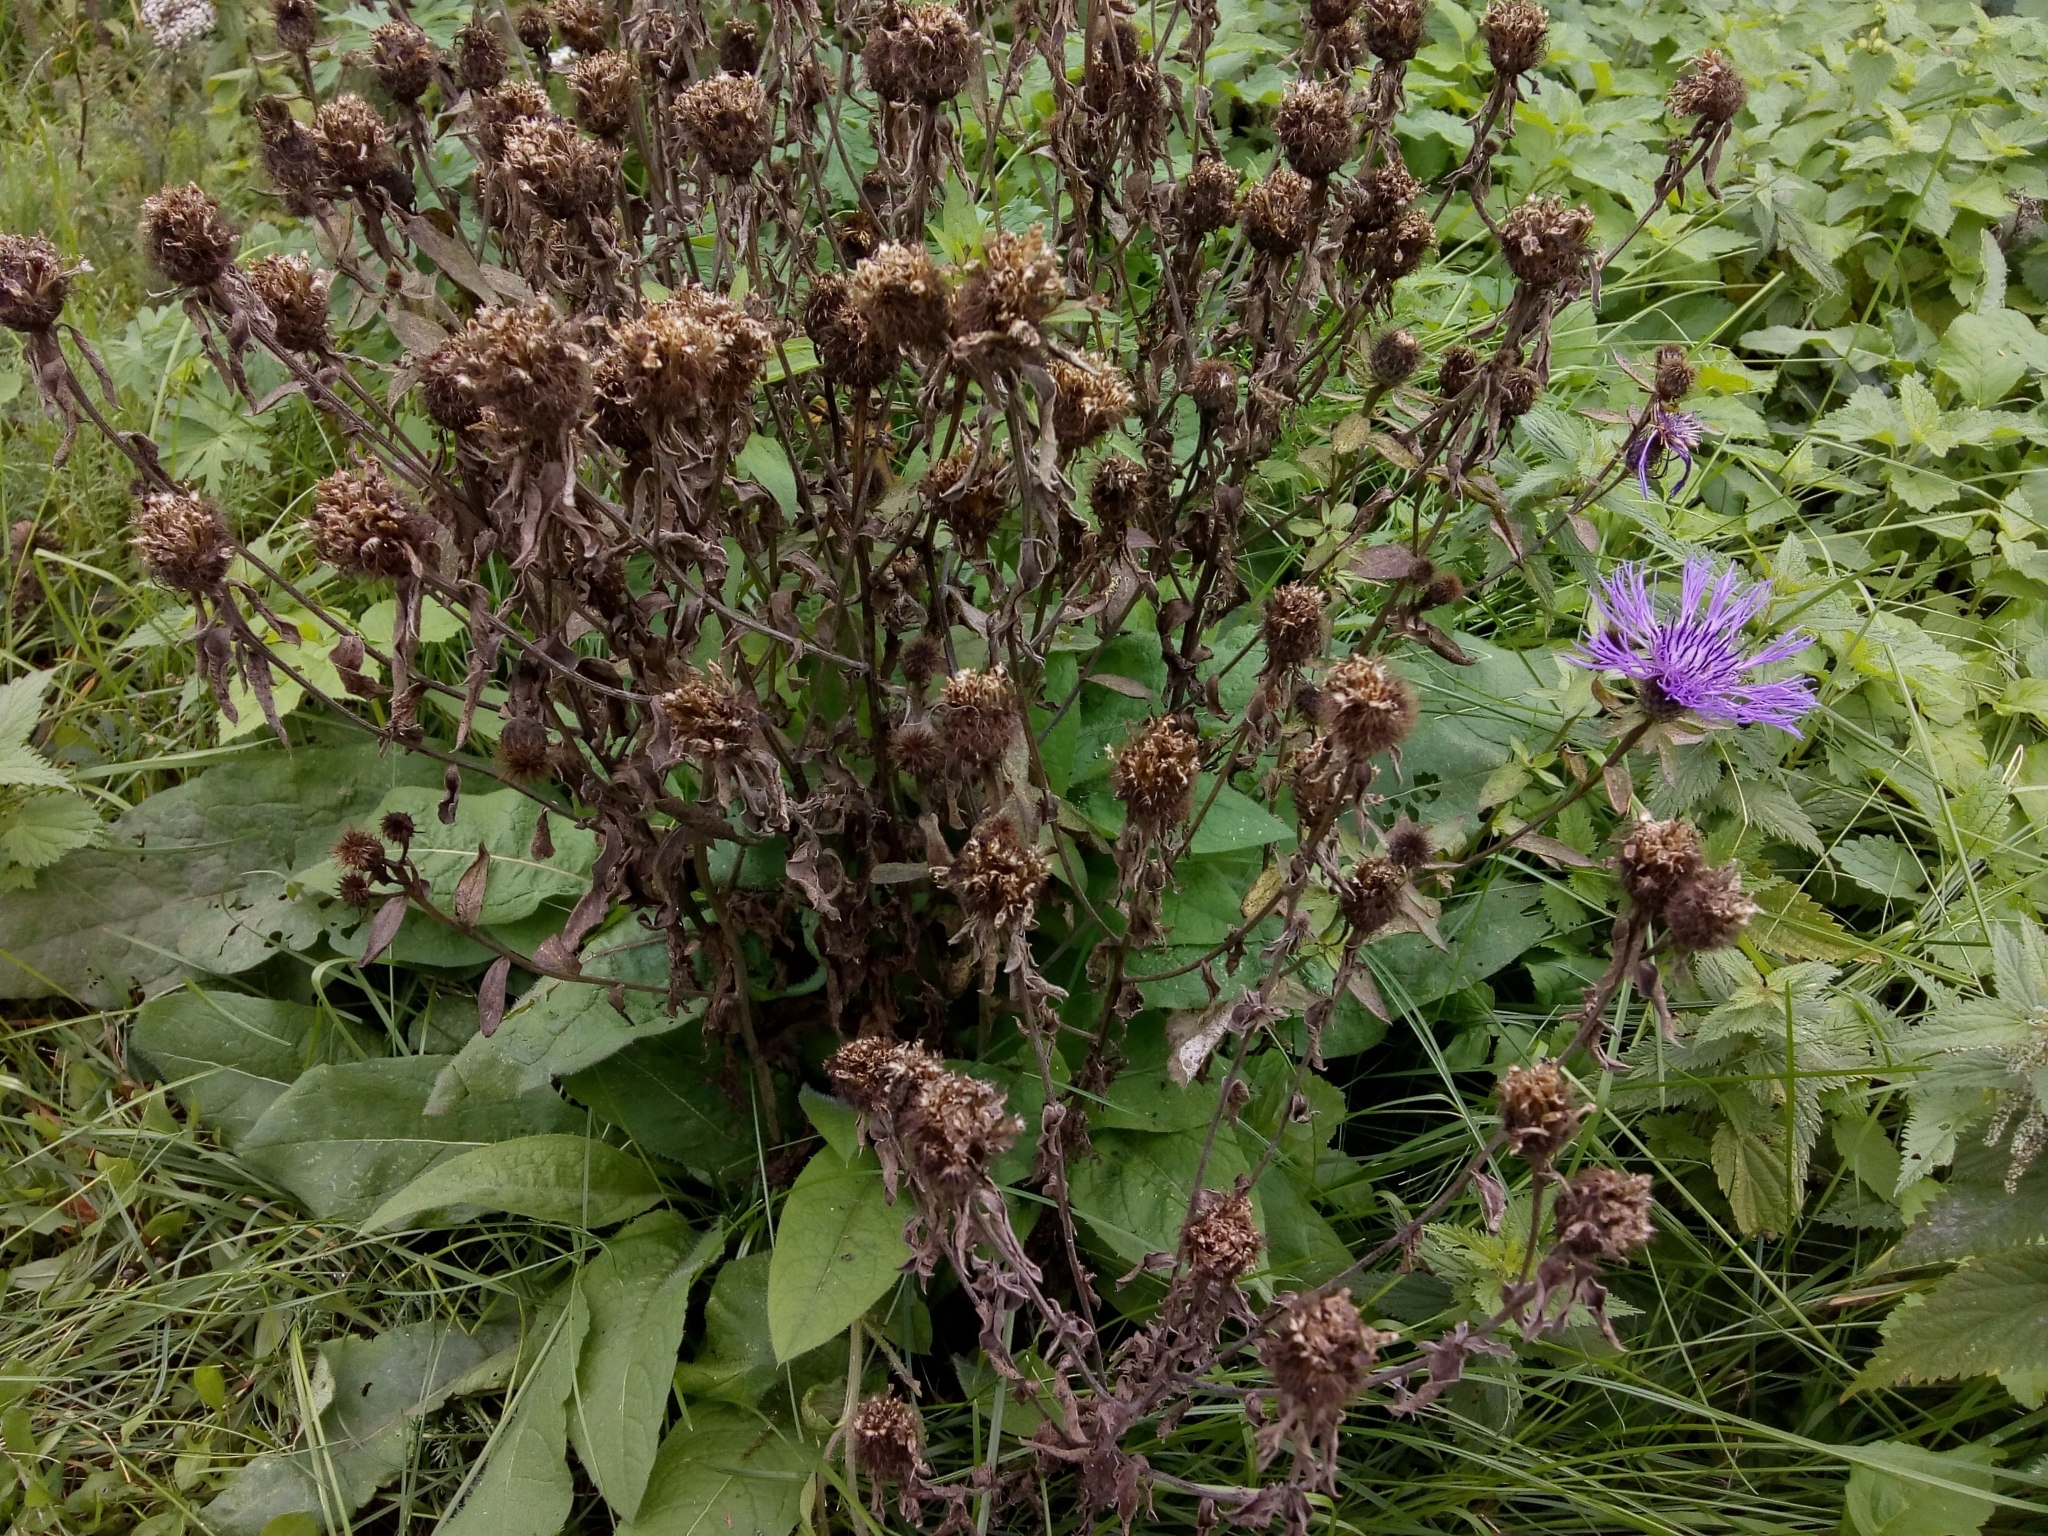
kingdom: Plantae
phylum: Tracheophyta
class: Magnoliopsida
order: Asterales
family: Asteraceae
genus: Centaurea
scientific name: Centaurea phrygia
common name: Wig knapweed
